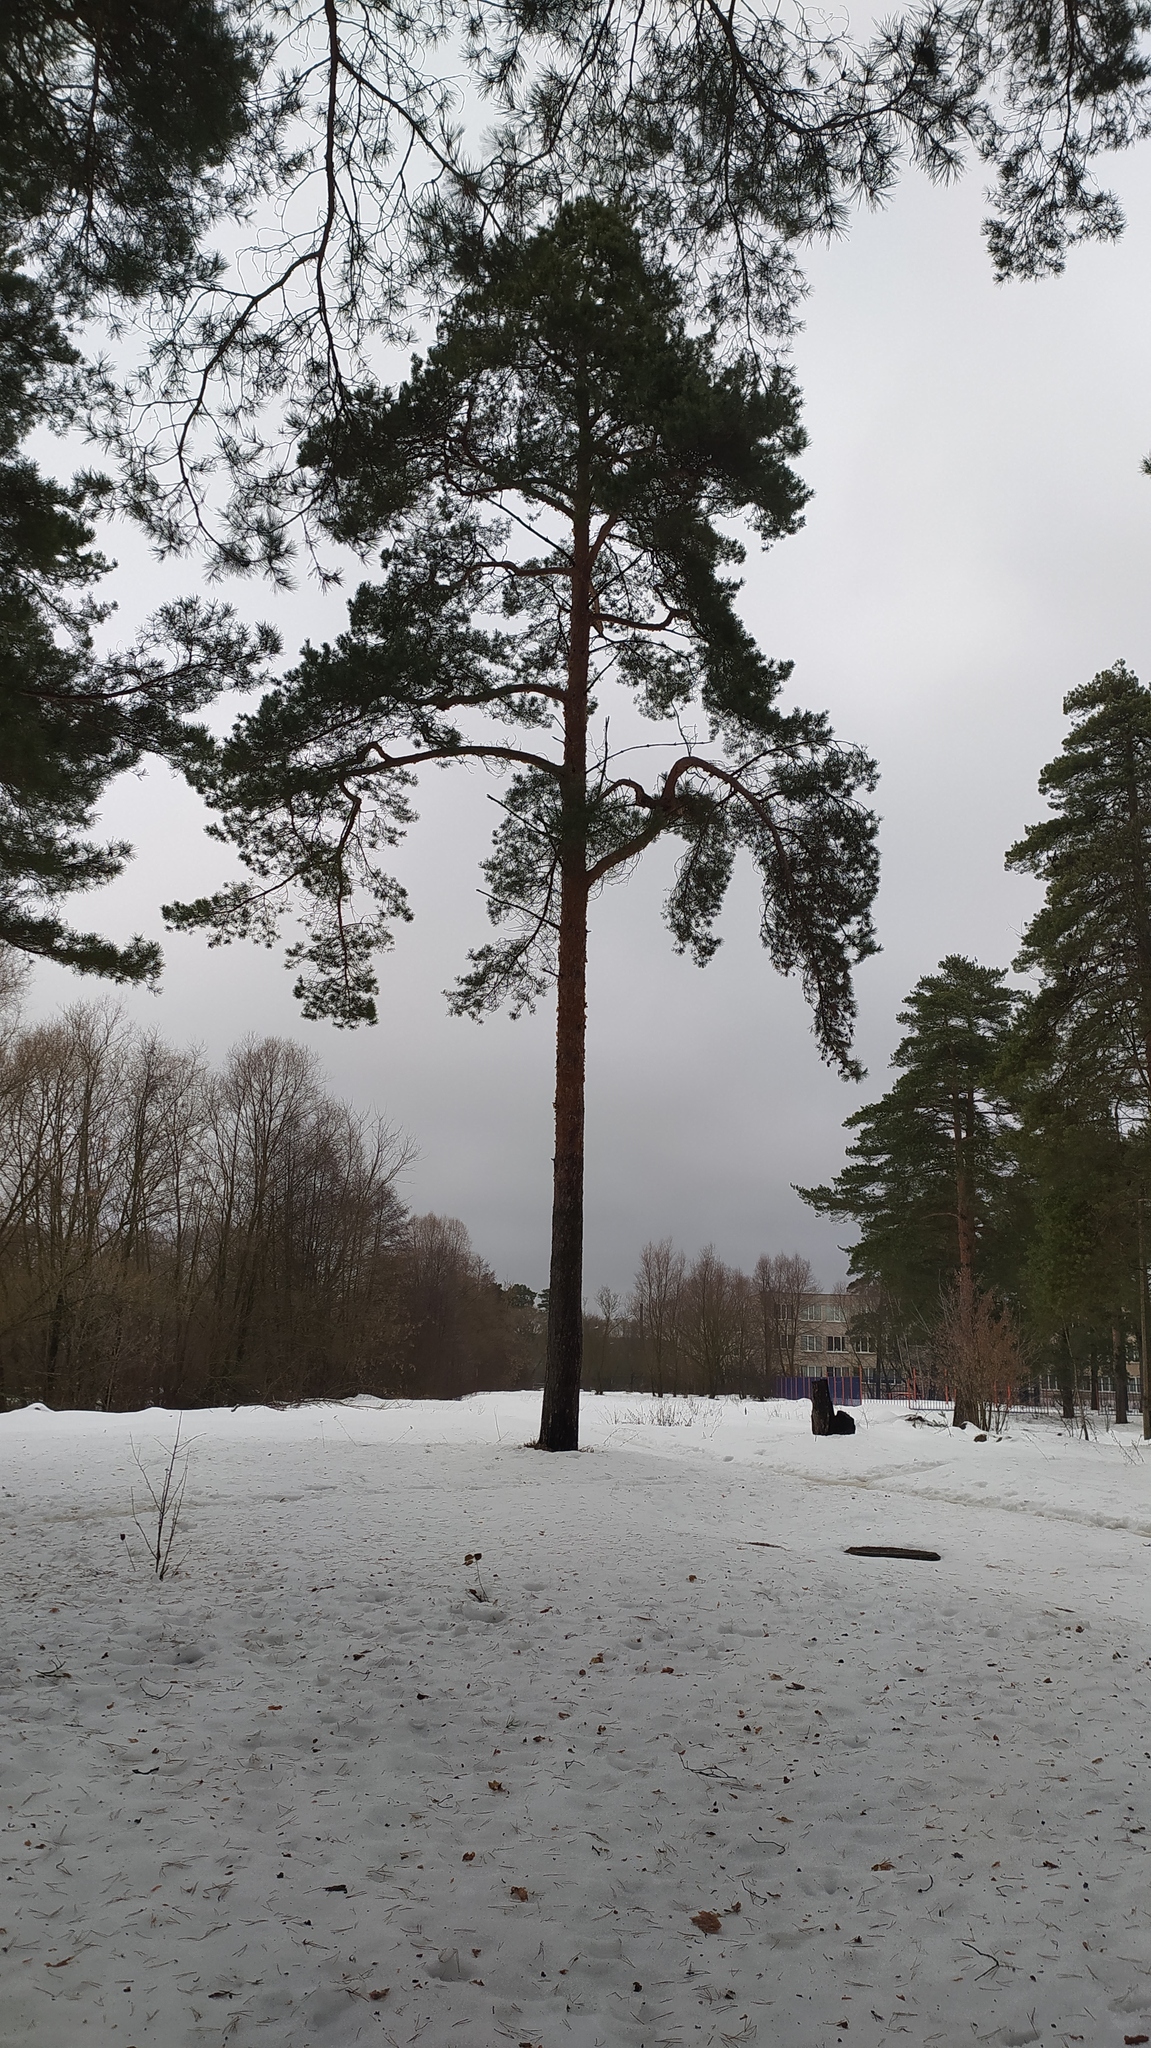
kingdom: Plantae
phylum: Tracheophyta
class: Pinopsida
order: Pinales
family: Pinaceae
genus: Pinus
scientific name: Pinus sylvestris
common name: Scots pine
